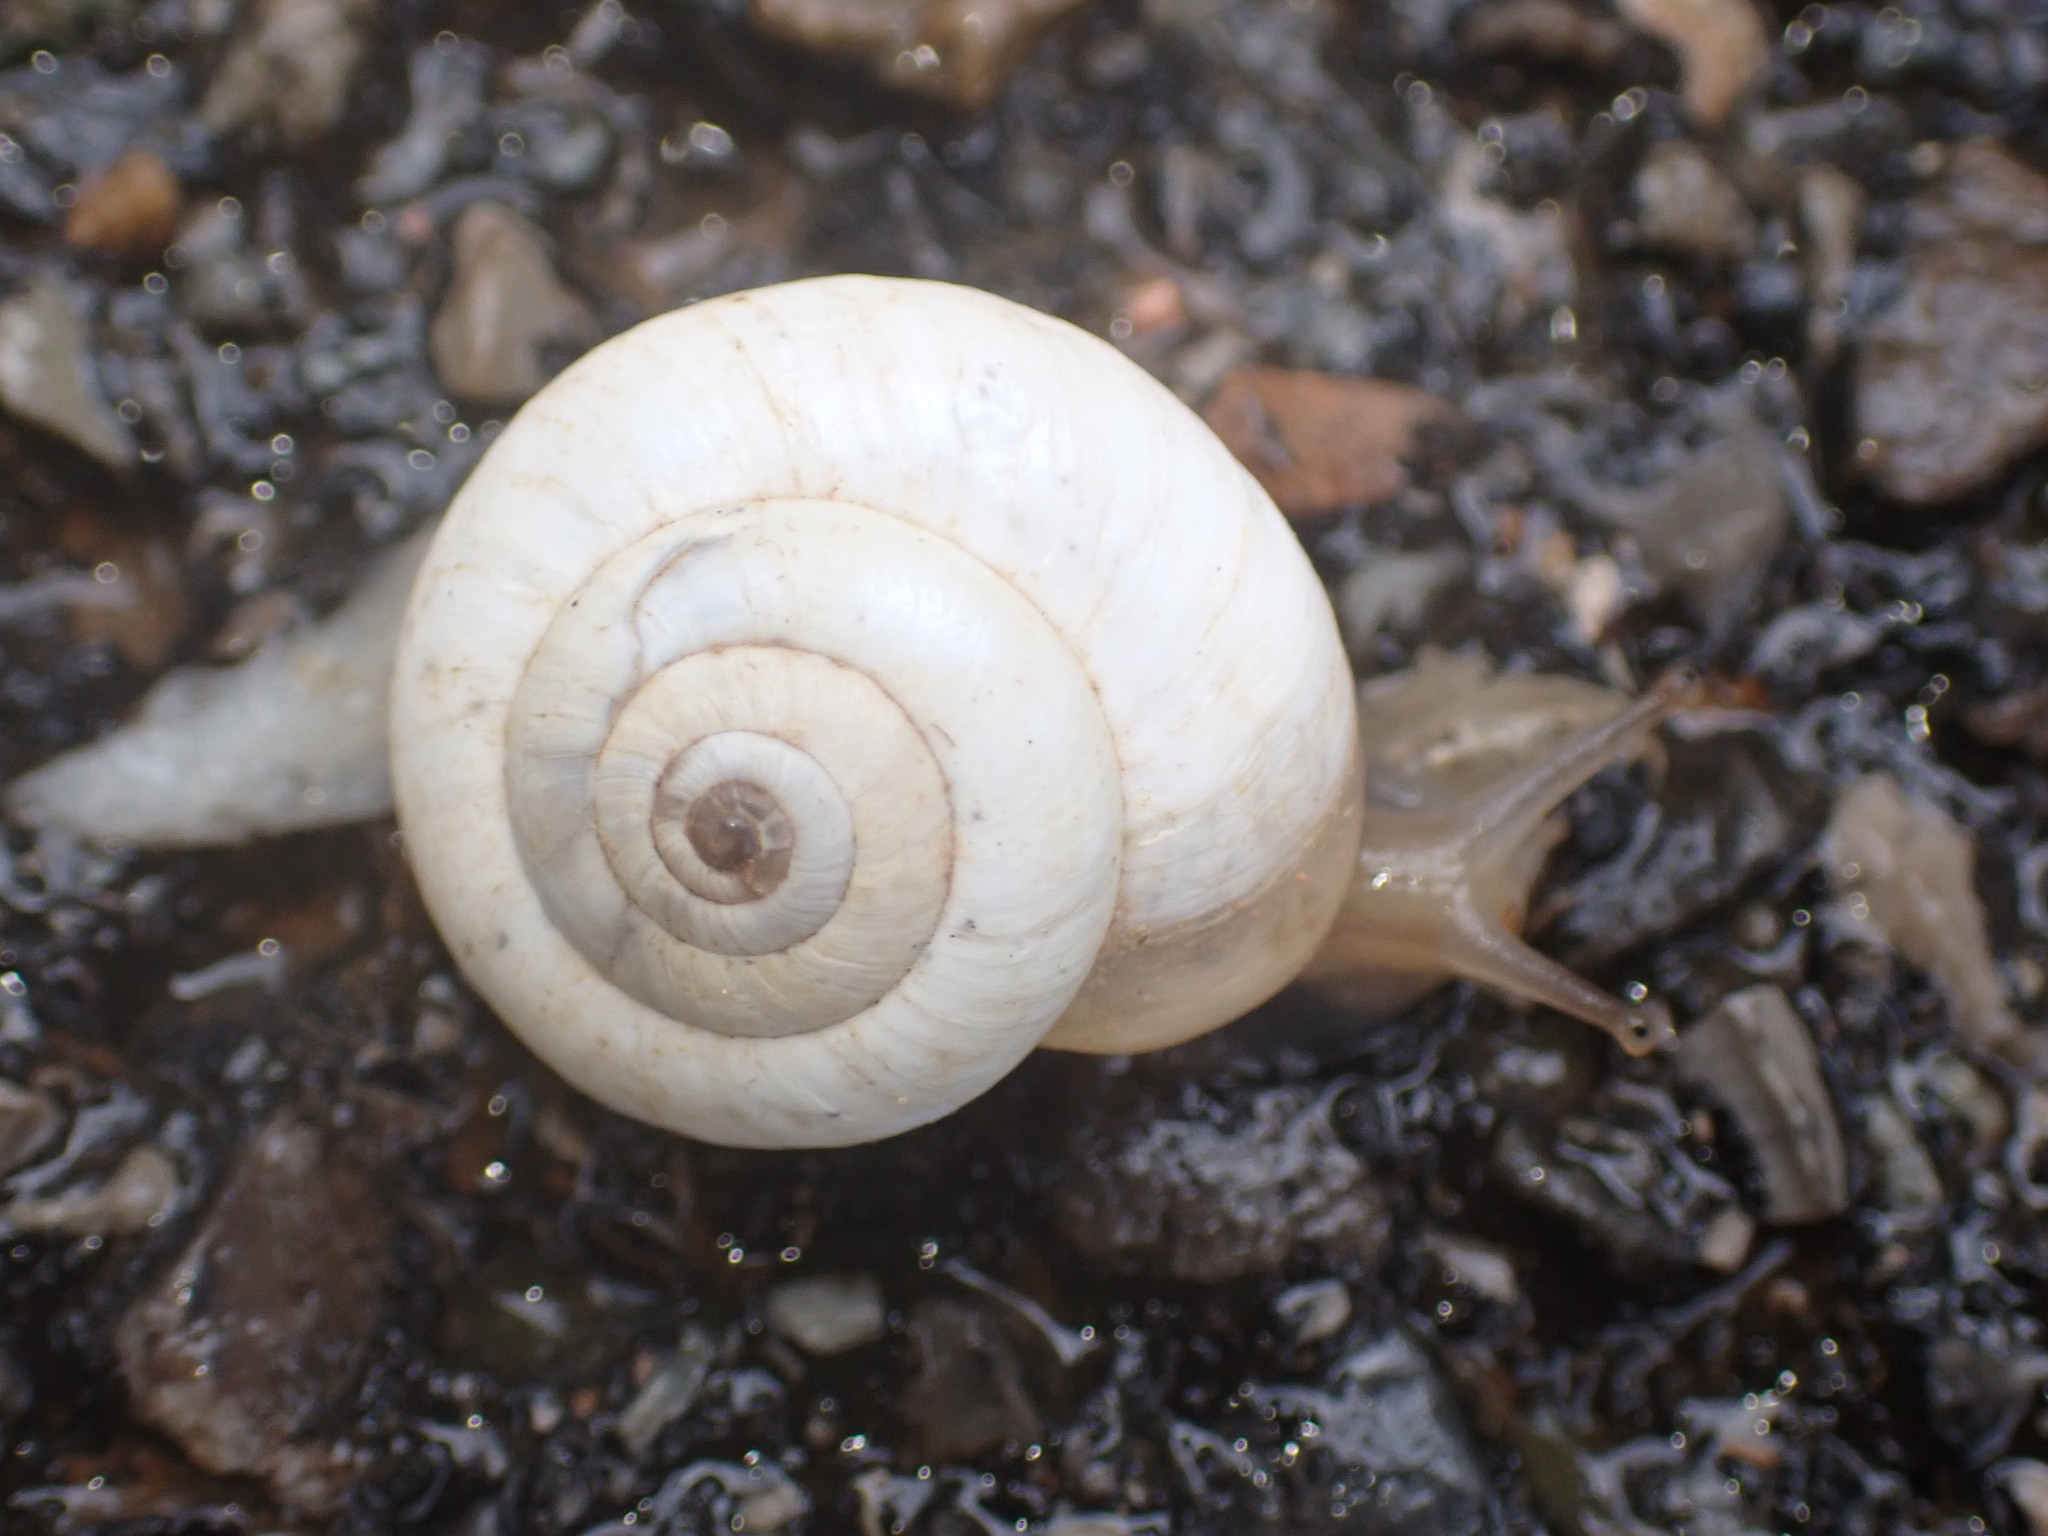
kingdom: Animalia
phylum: Mollusca
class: Gastropoda
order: Stylommatophora
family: Geomitridae
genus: Xeropicta
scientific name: Xeropicta derbentina
